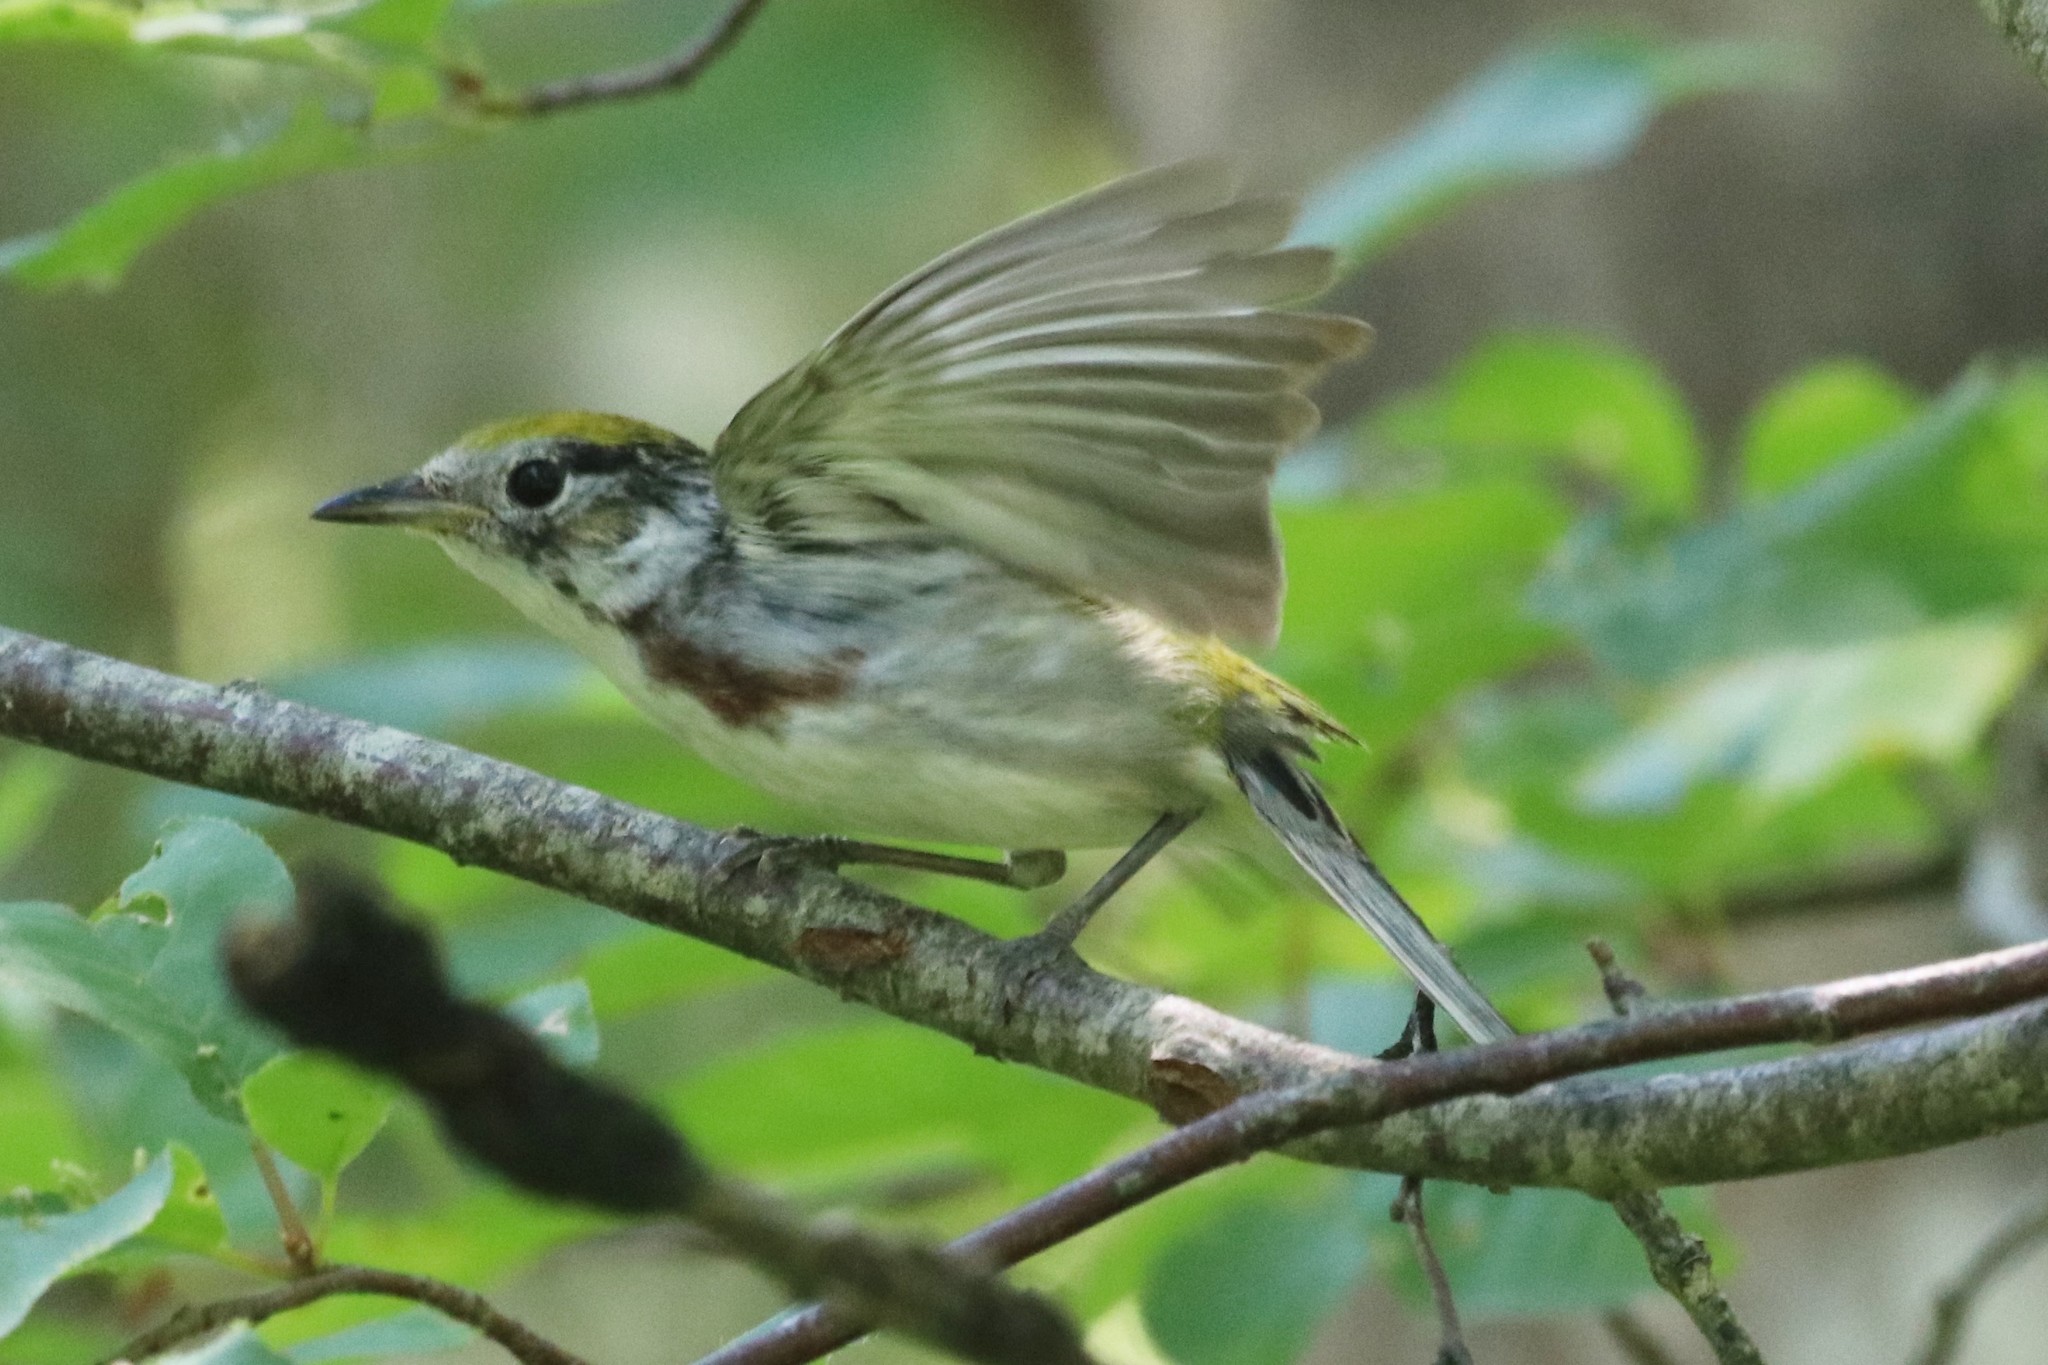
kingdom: Animalia
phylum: Chordata
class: Aves
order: Passeriformes
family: Parulidae
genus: Setophaga
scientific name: Setophaga pensylvanica
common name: Chestnut-sided warbler
